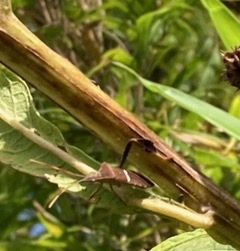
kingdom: Animalia
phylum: Arthropoda
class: Insecta
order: Hemiptera
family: Coreidae
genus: Leptoglossus
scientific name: Leptoglossus phyllopus
